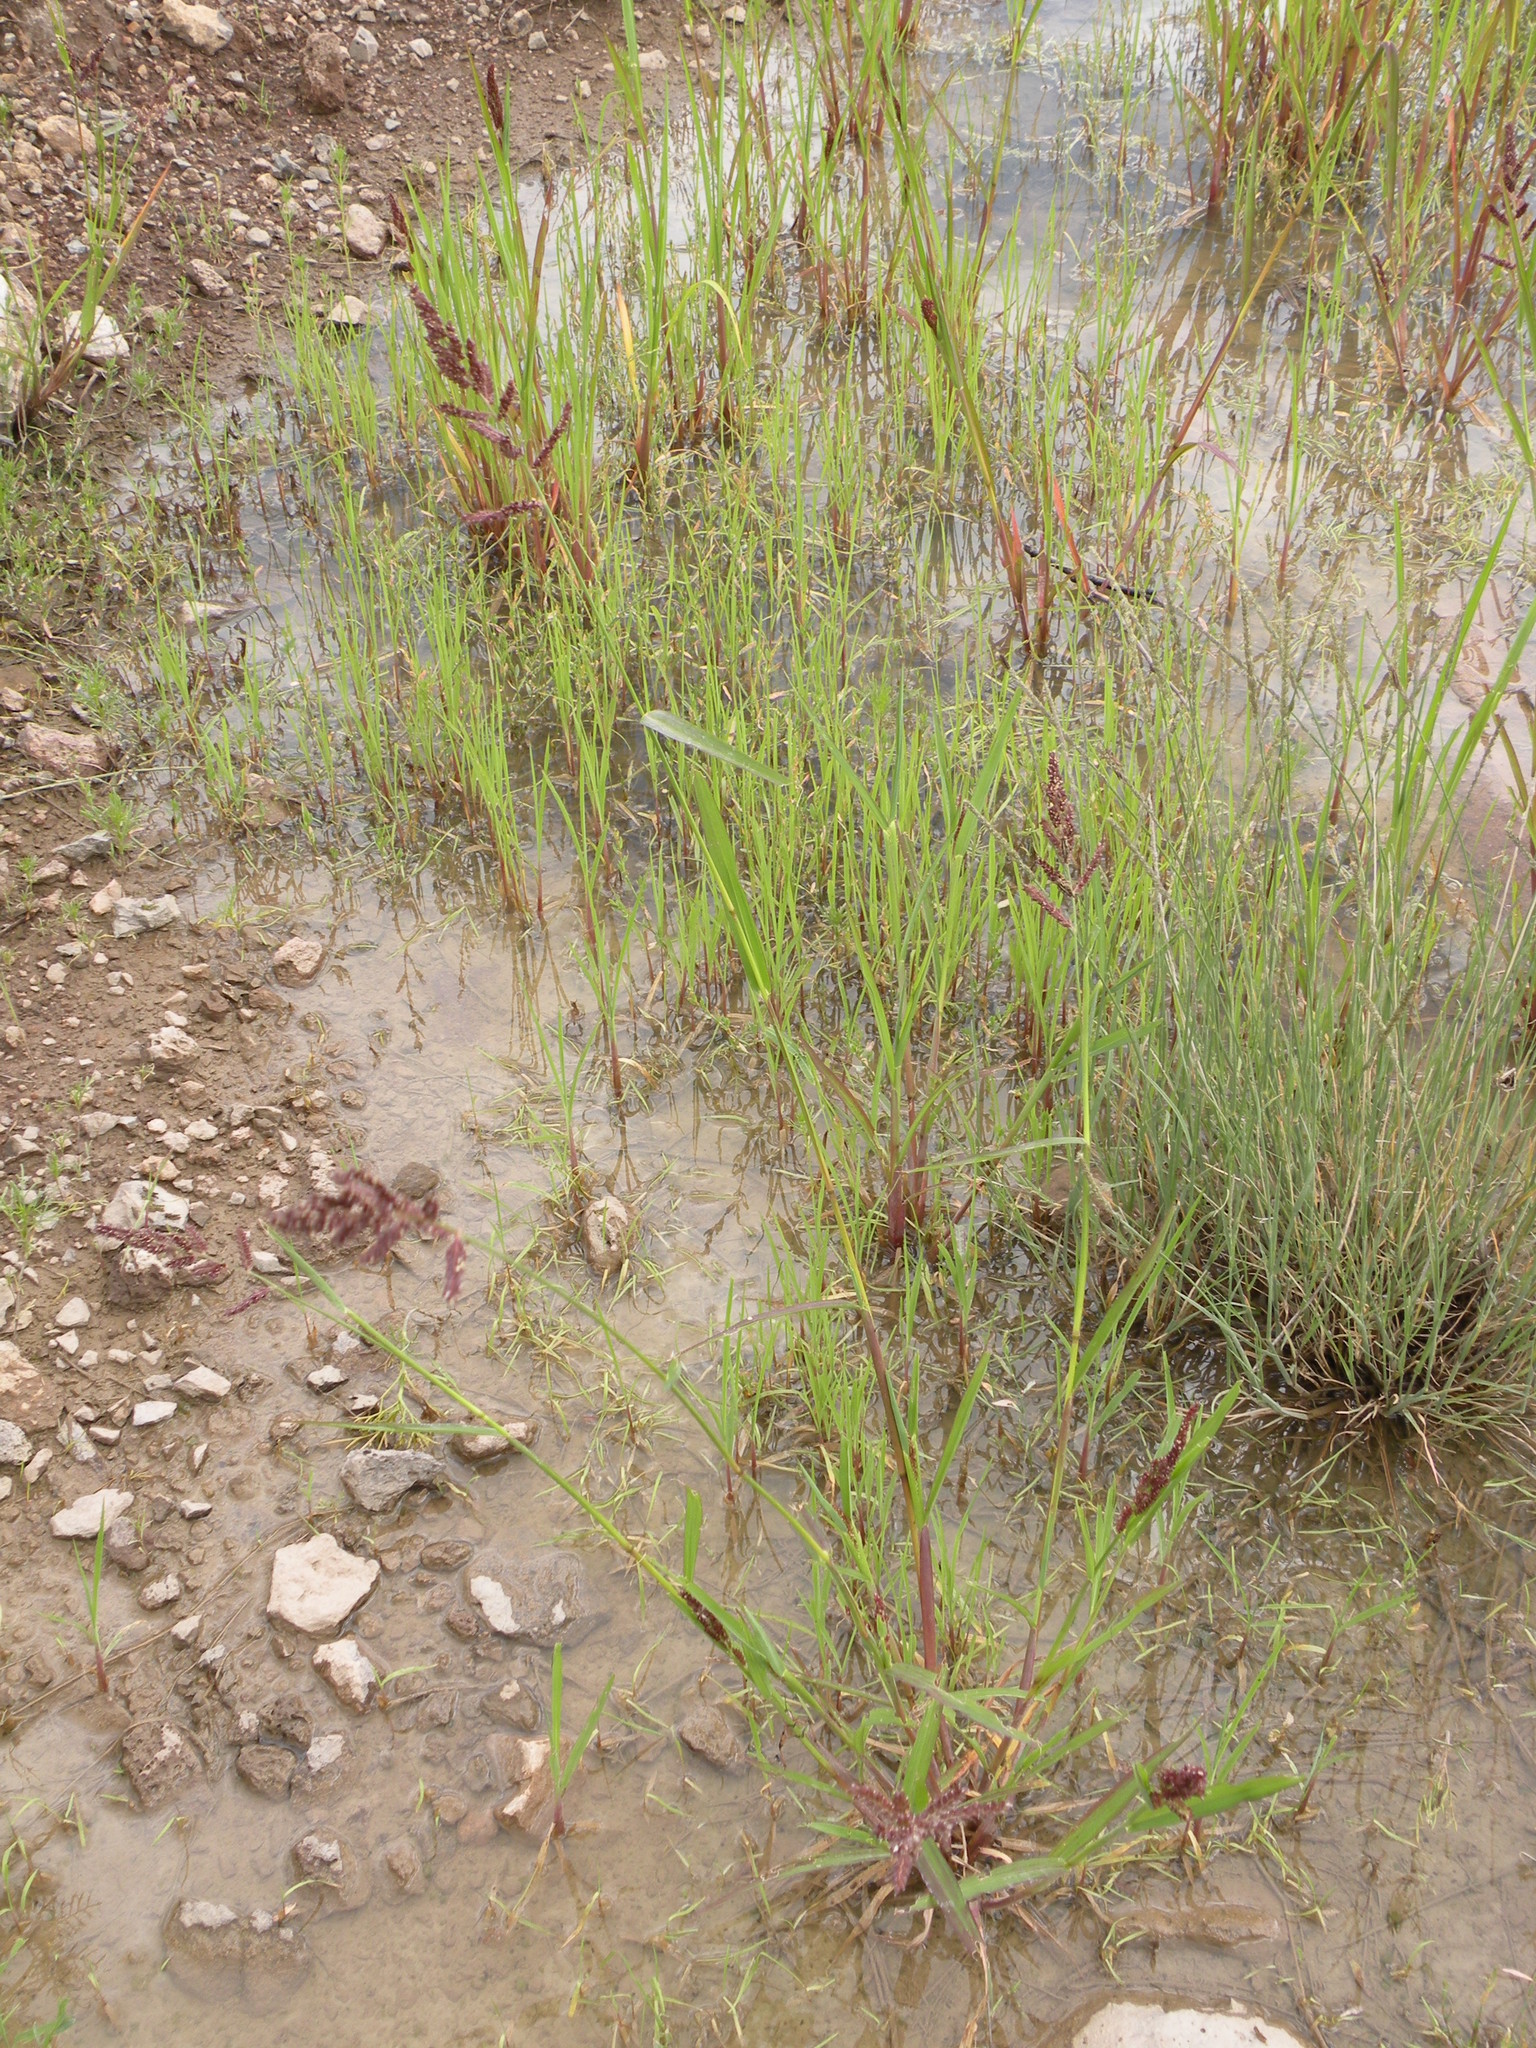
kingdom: Plantae
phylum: Tracheophyta
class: Liliopsida
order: Poales
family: Poaceae
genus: Echinochloa
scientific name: Echinochloa crus-galli
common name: Cockspur
